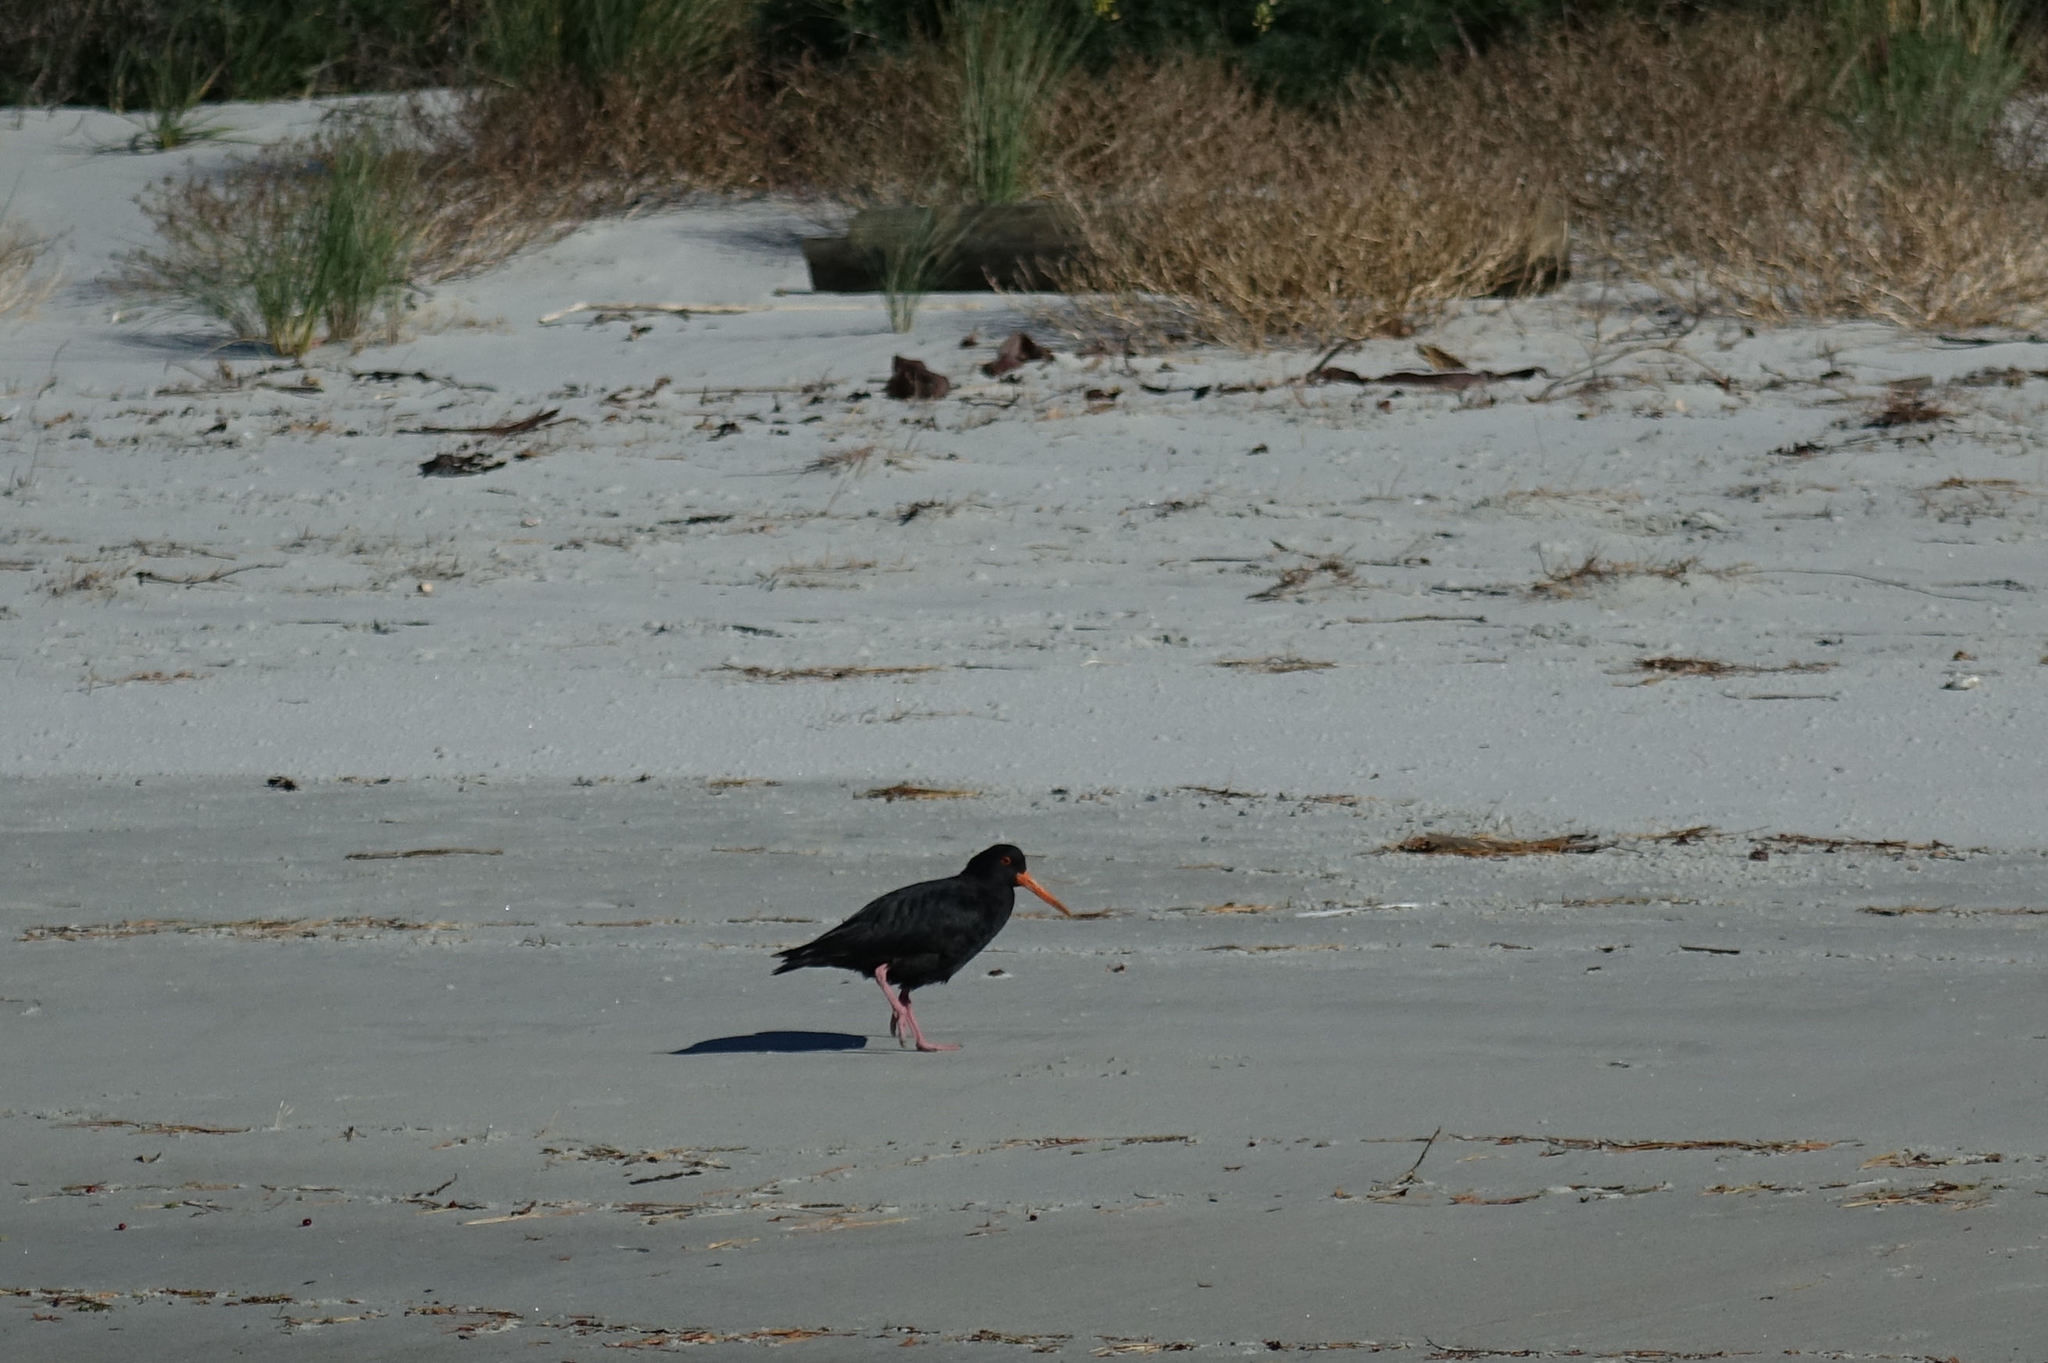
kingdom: Animalia
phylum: Chordata
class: Aves
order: Charadriiformes
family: Haematopodidae
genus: Haematopus
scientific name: Haematopus unicolor
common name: Variable oystercatcher
